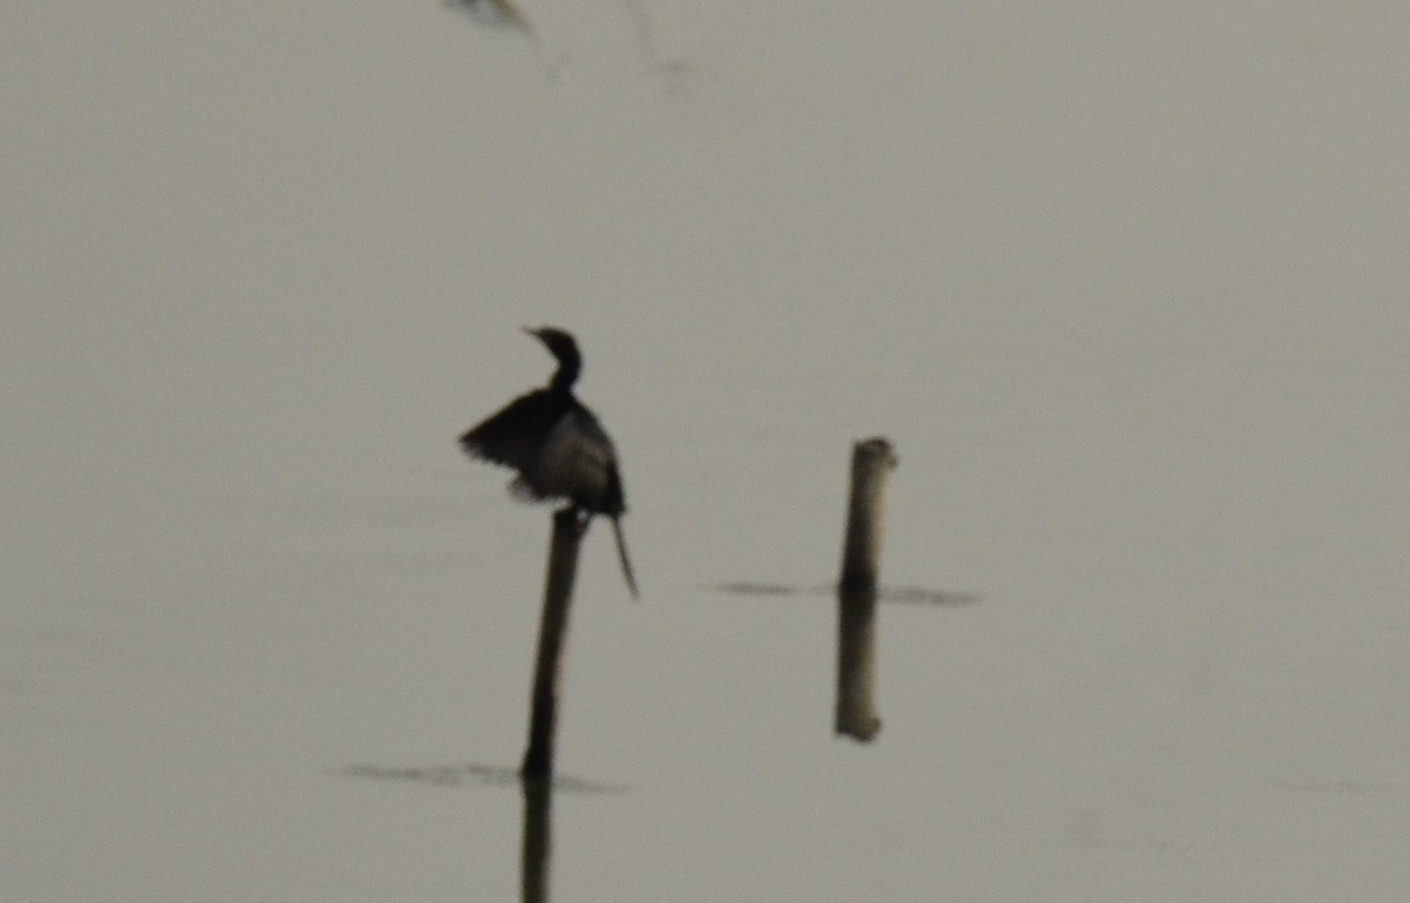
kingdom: Animalia
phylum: Chordata
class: Aves
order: Suliformes
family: Phalacrocoracidae
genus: Microcarbo
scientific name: Microcarbo niger
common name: Little cormorant
